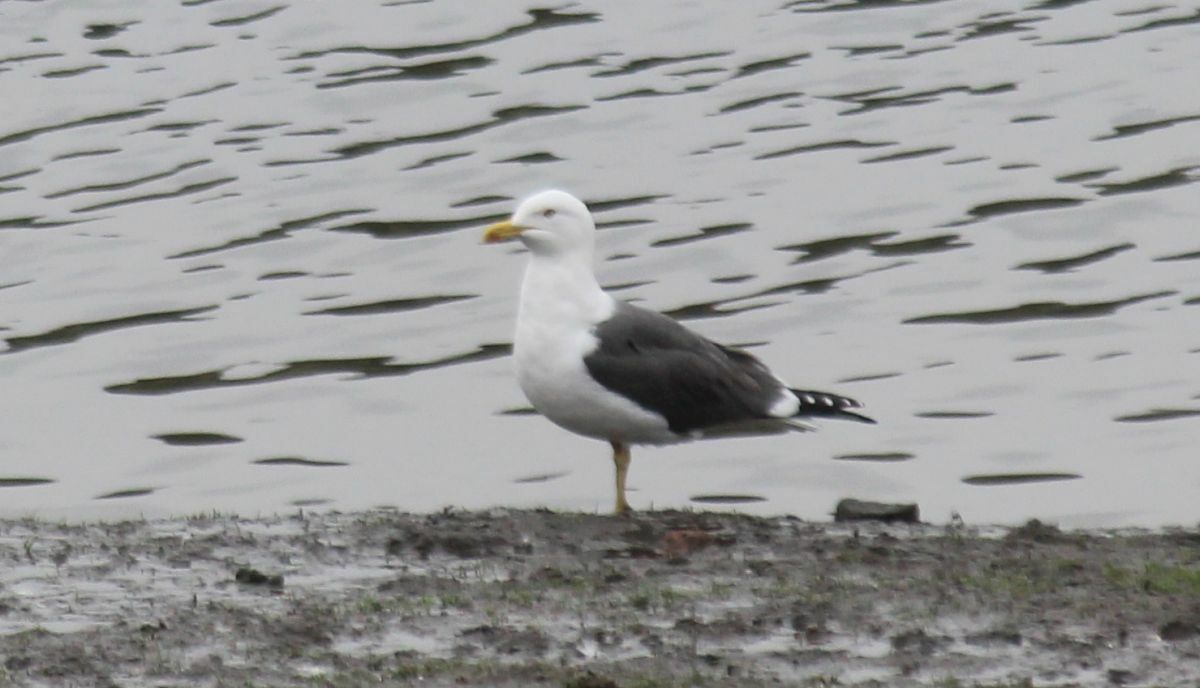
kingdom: Animalia
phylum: Chordata
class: Aves
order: Charadriiformes
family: Laridae
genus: Larus
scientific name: Larus fuscus
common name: Lesser black-backed gull
